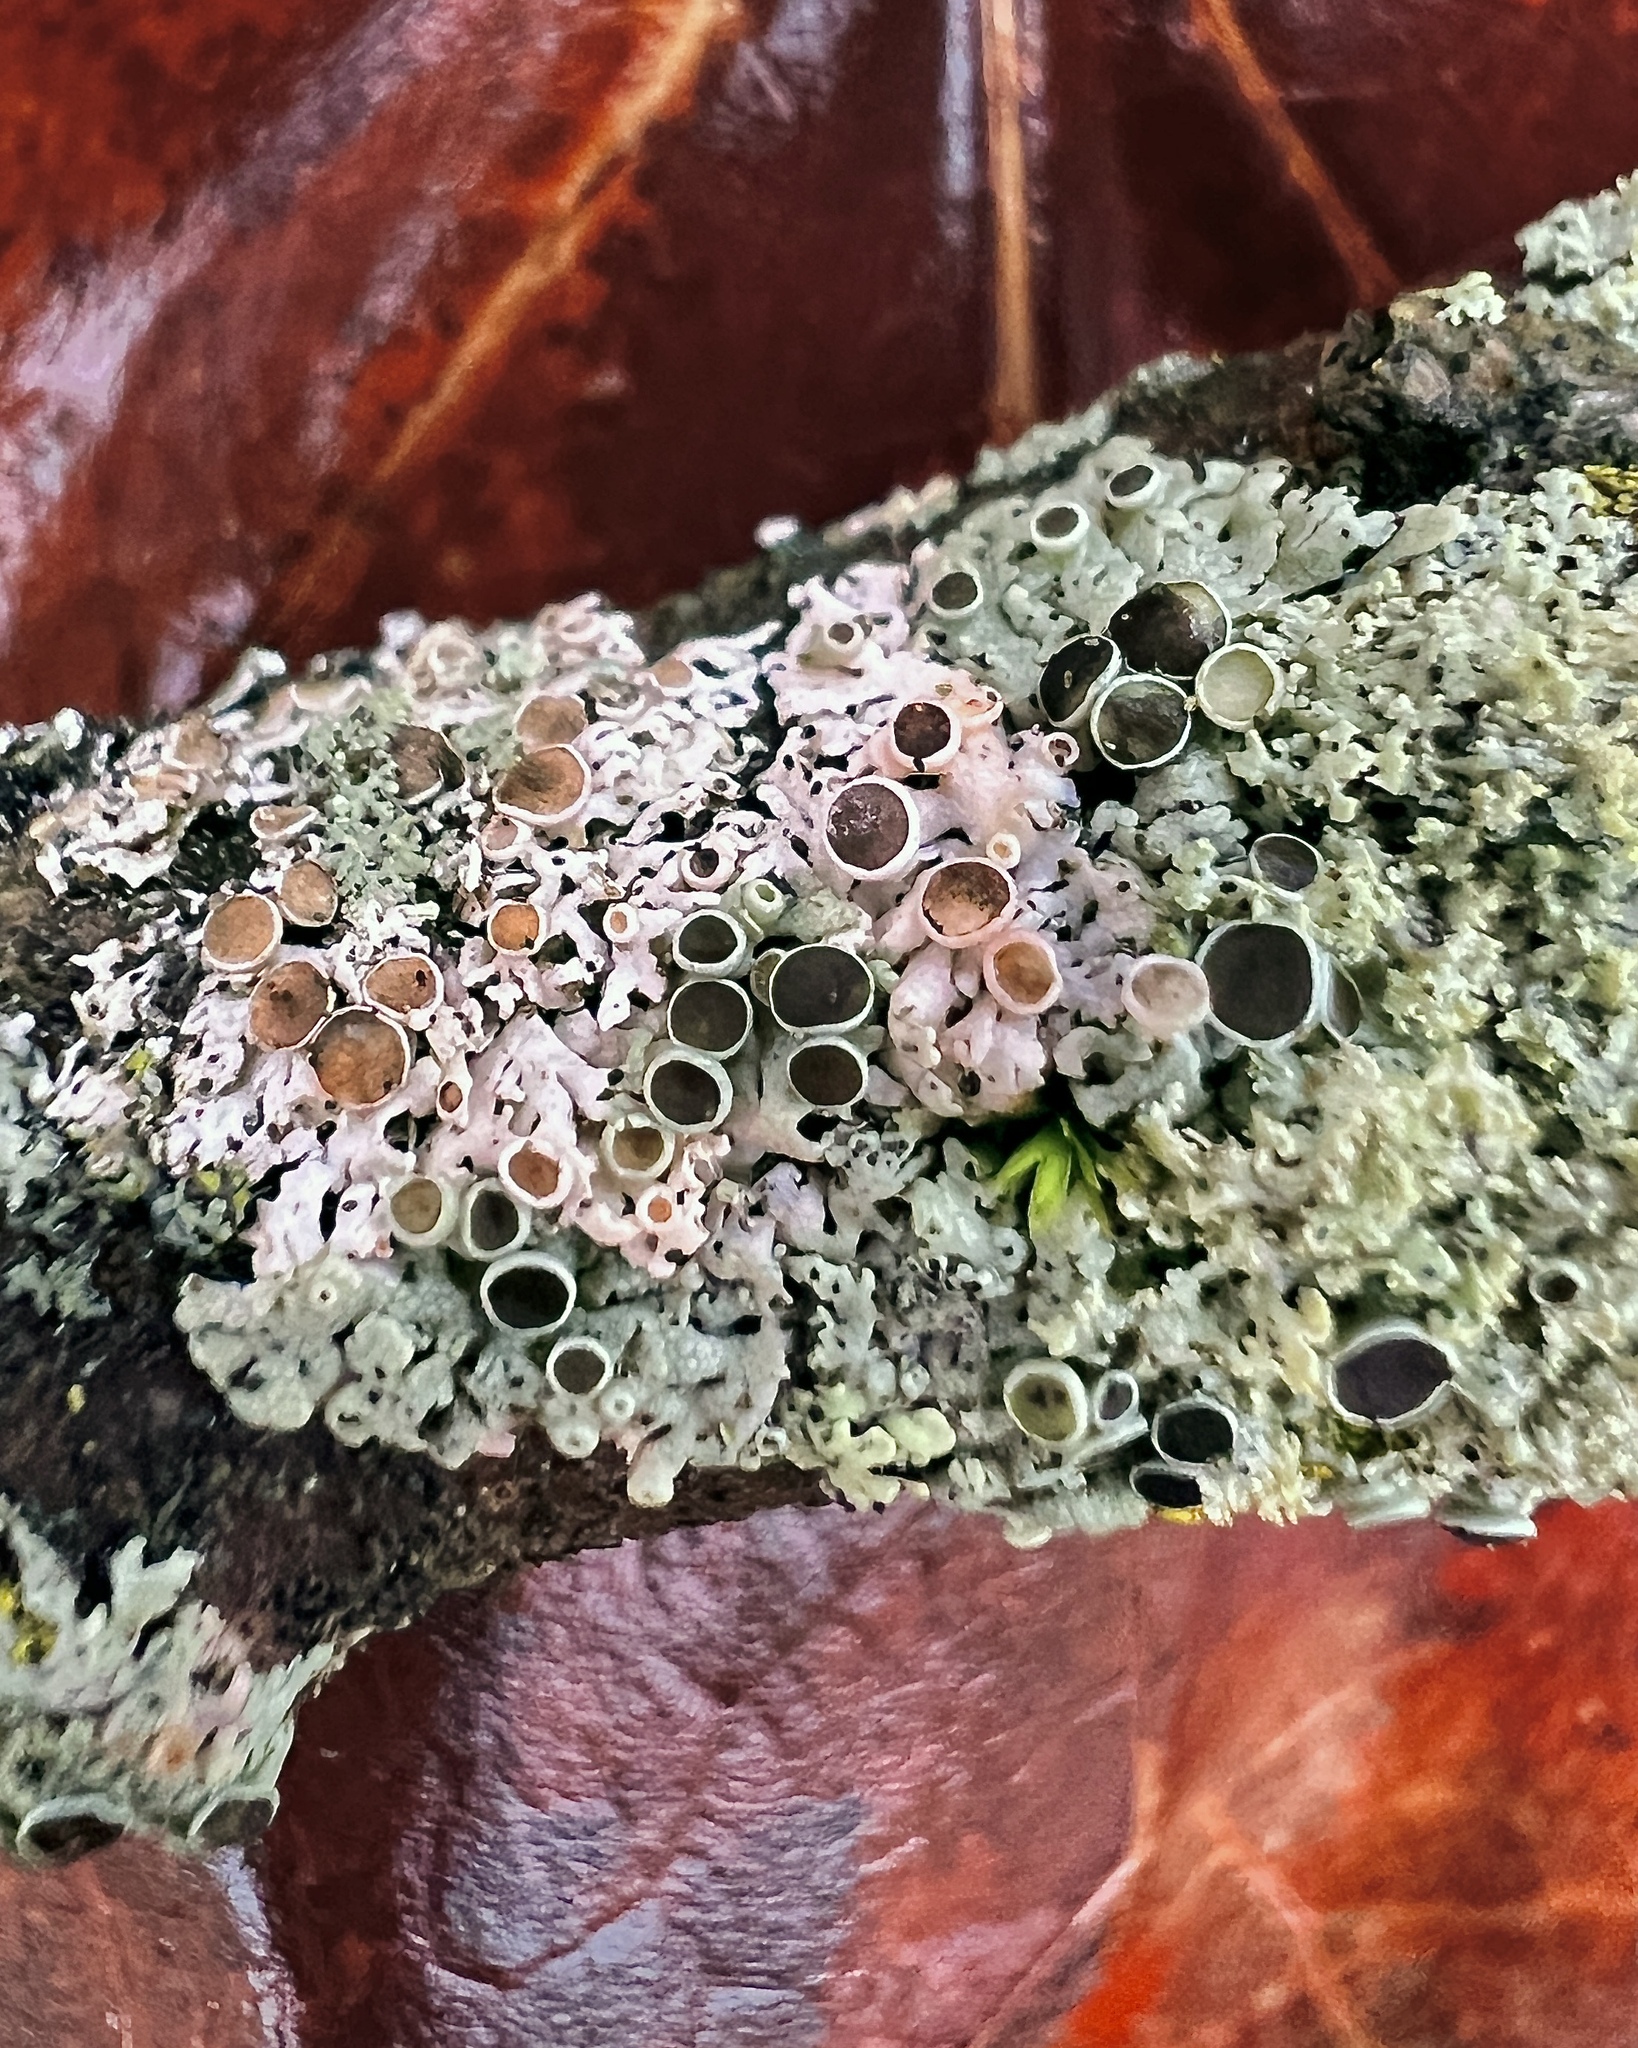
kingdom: Fungi
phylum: Ascomycota
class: Lecanoromycetes
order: Caliciales
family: Physciaceae
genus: Physcia
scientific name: Physcia millegrana
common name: Rosette lichen
